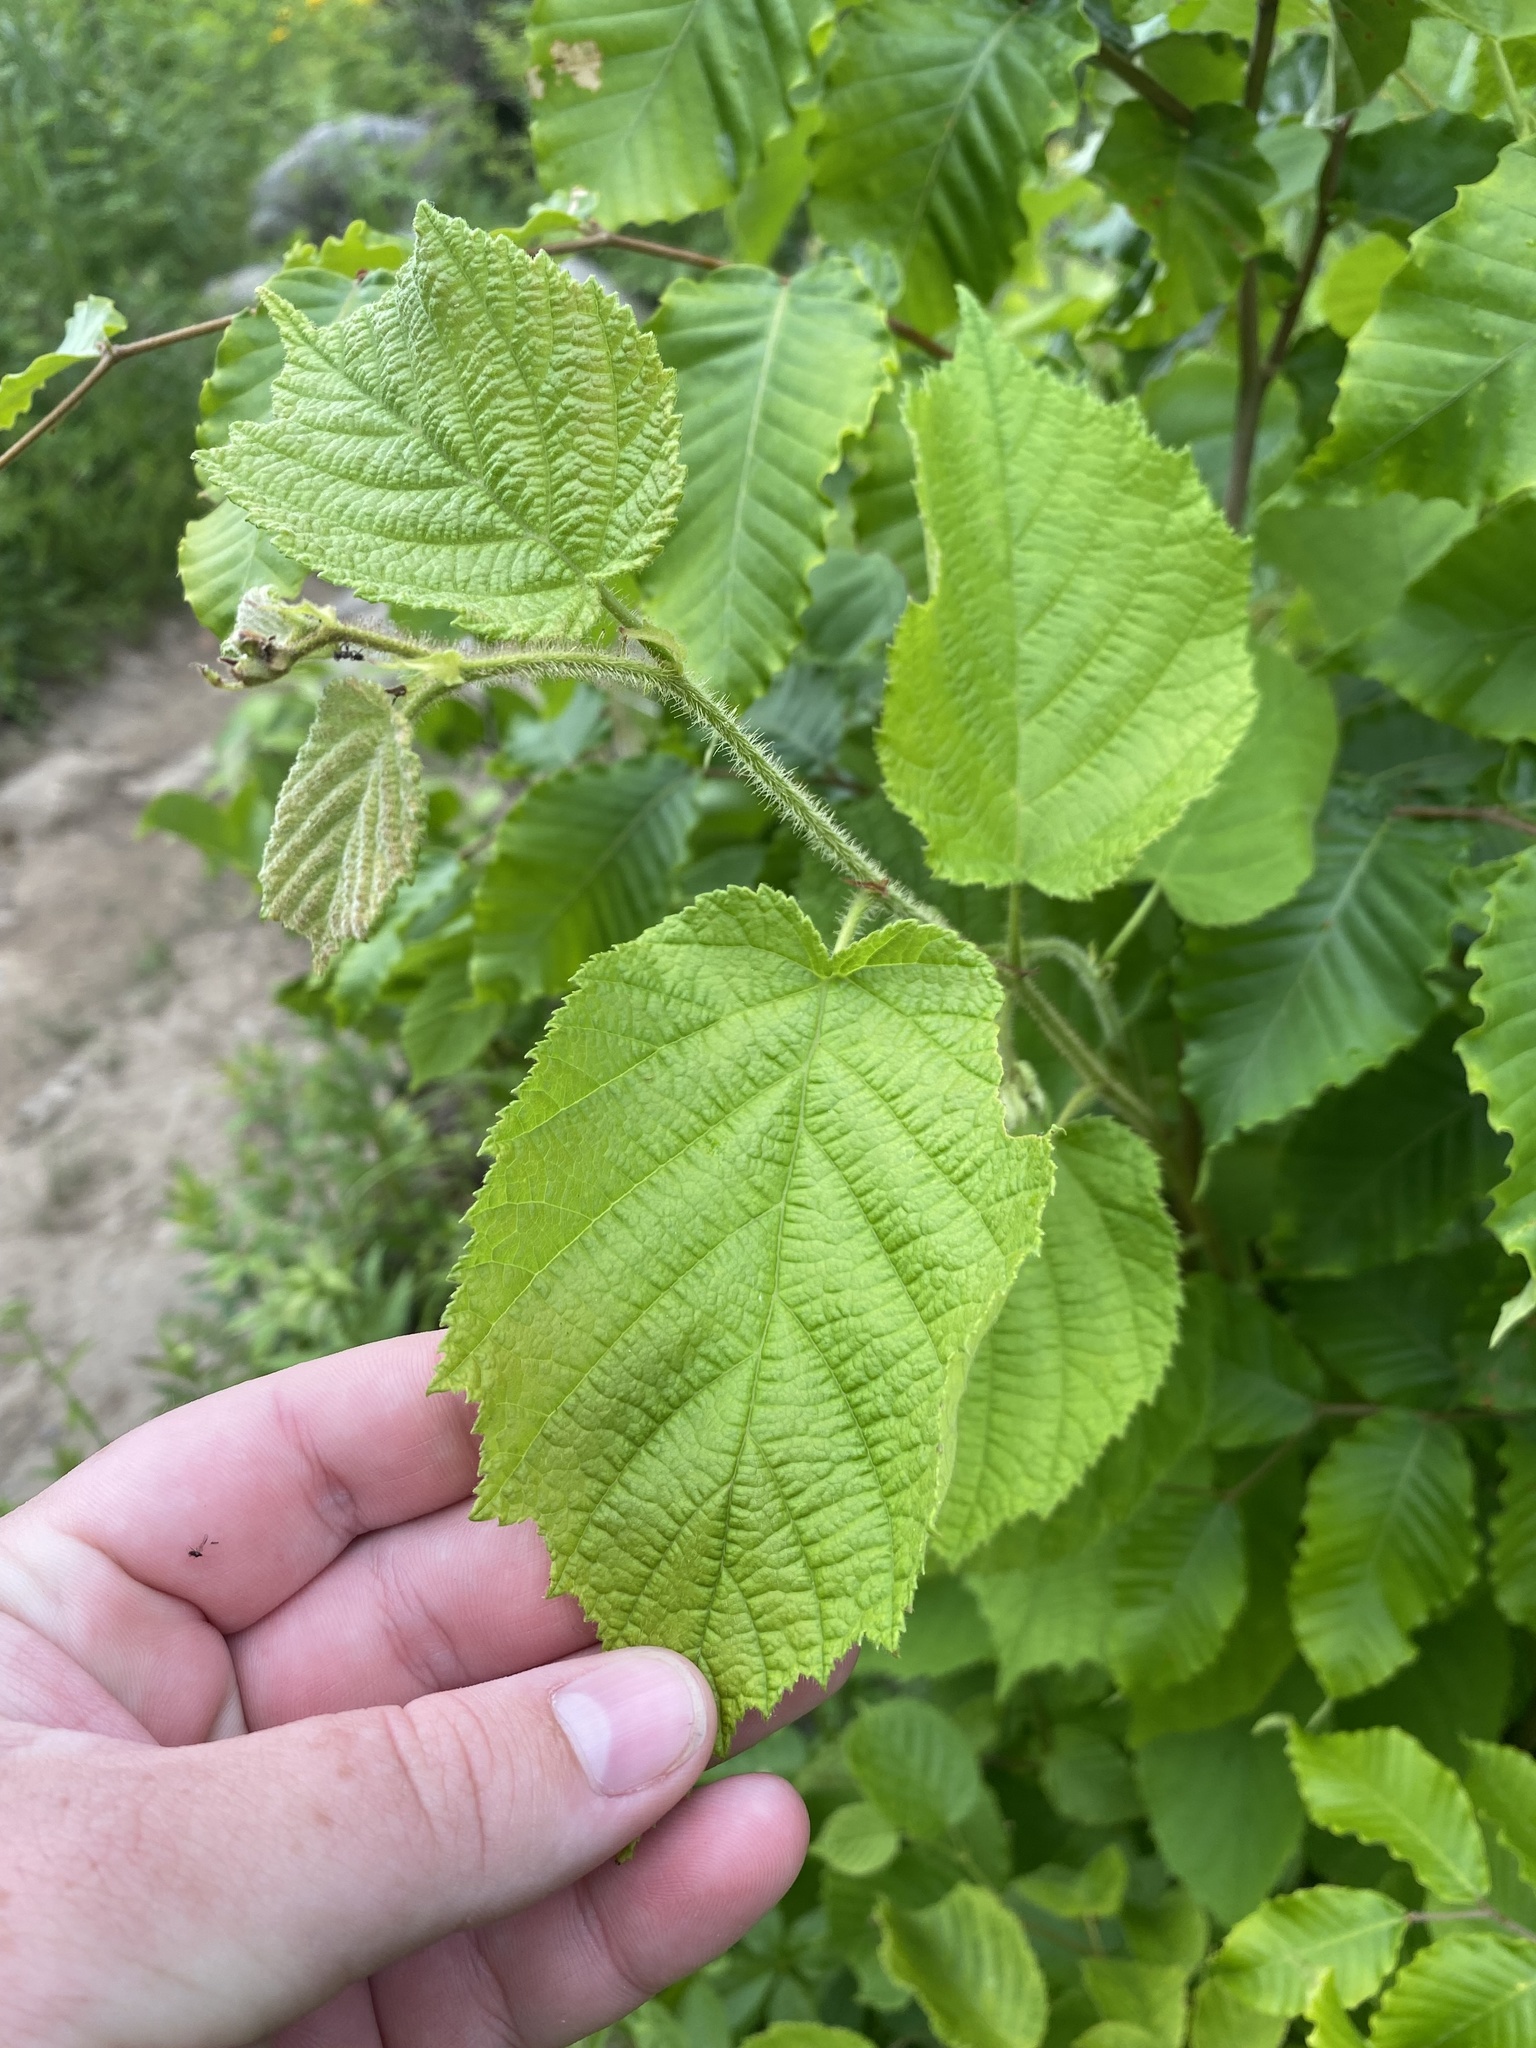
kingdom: Plantae
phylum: Tracheophyta
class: Magnoliopsida
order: Fagales
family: Betulaceae
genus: Corylus
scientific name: Corylus americana
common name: American hazel
